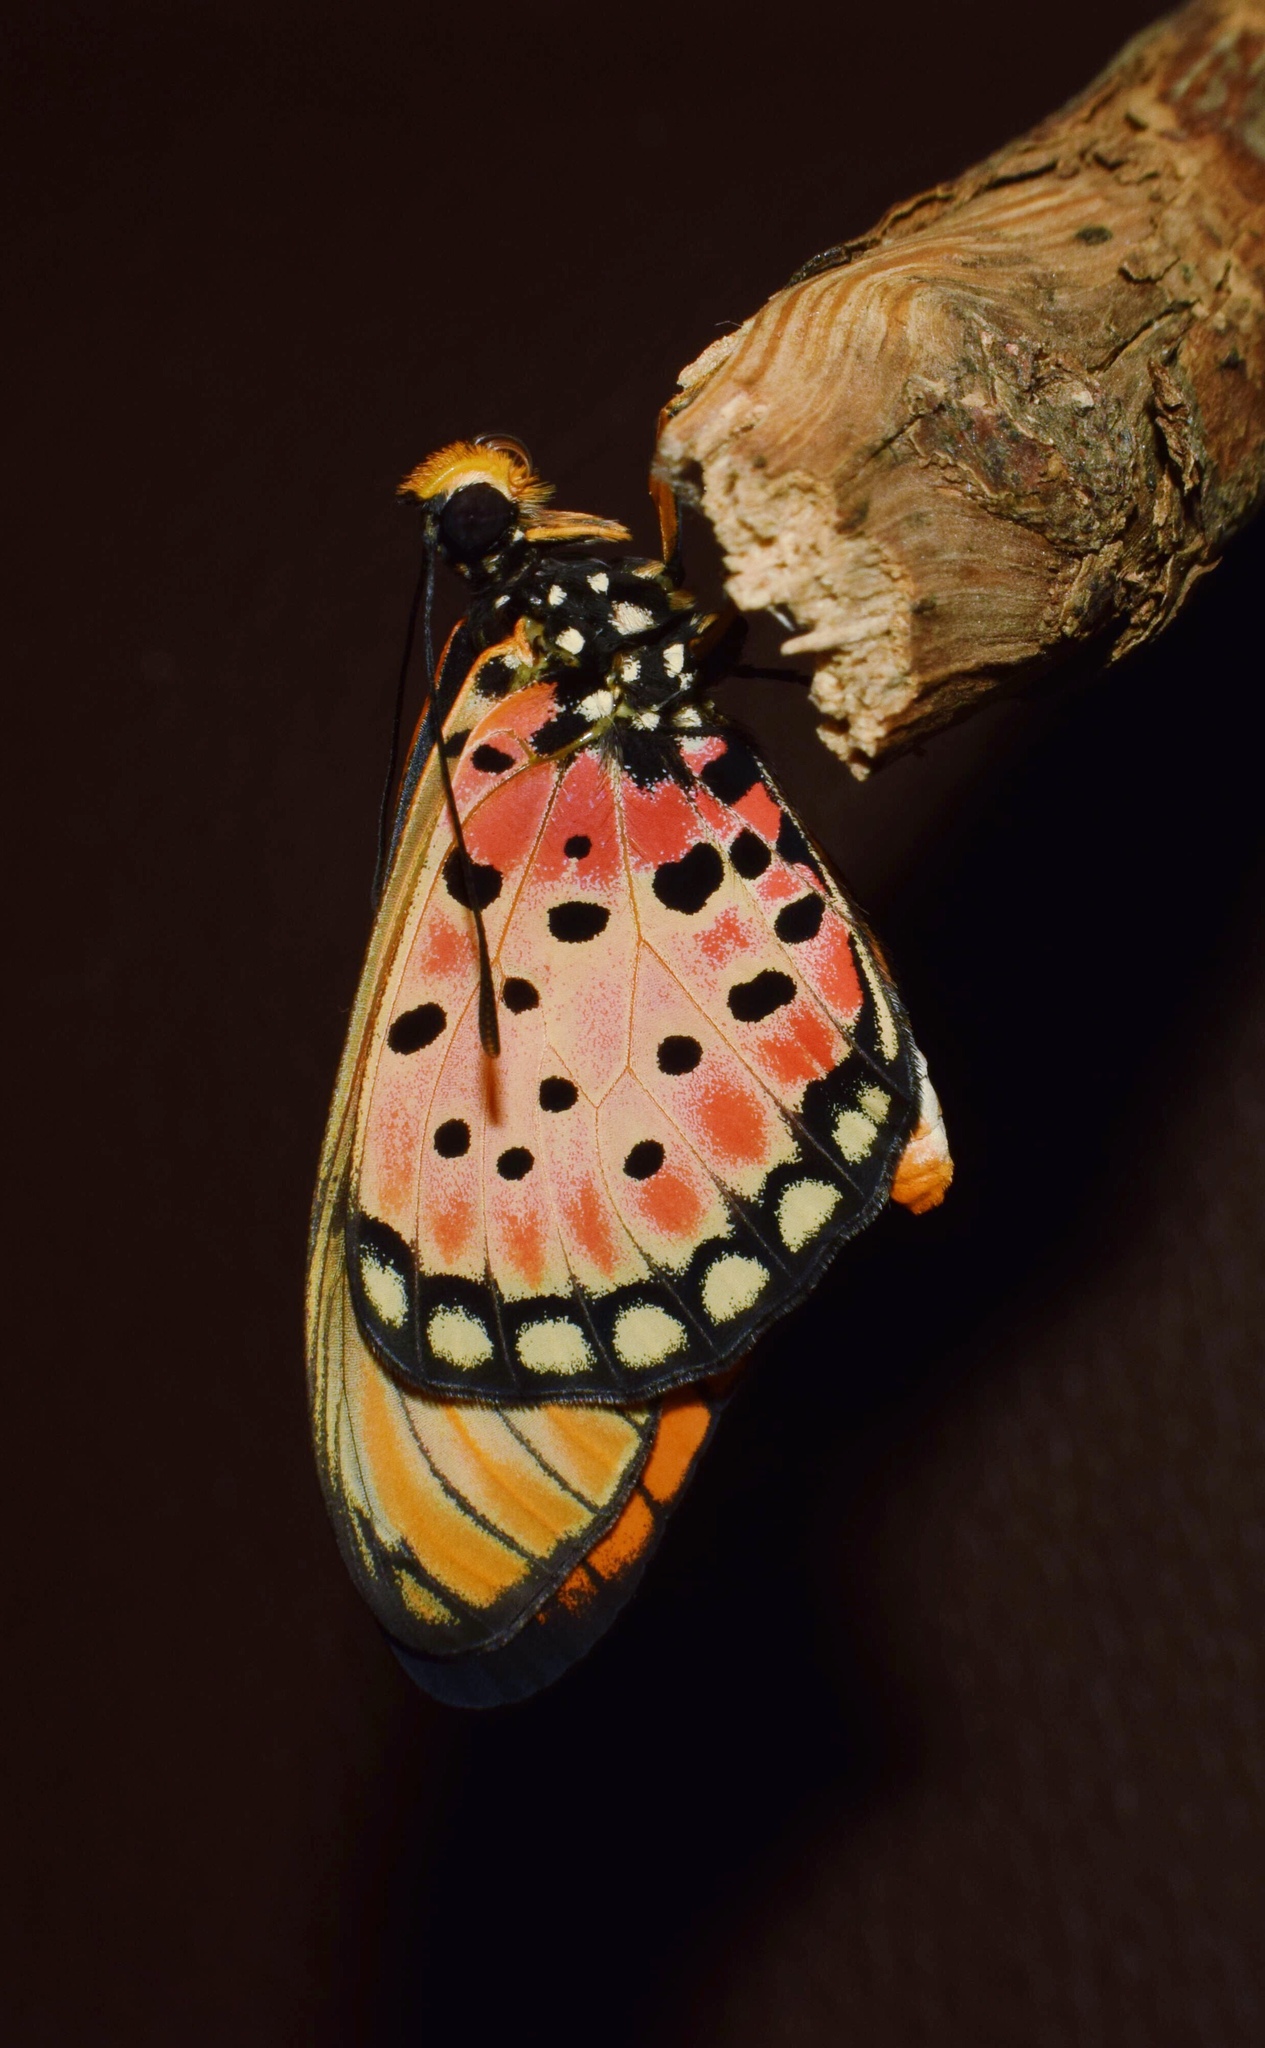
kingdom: Animalia
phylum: Arthropoda
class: Insecta
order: Lepidoptera
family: Nymphalidae
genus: Stephenia
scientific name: Stephenia
